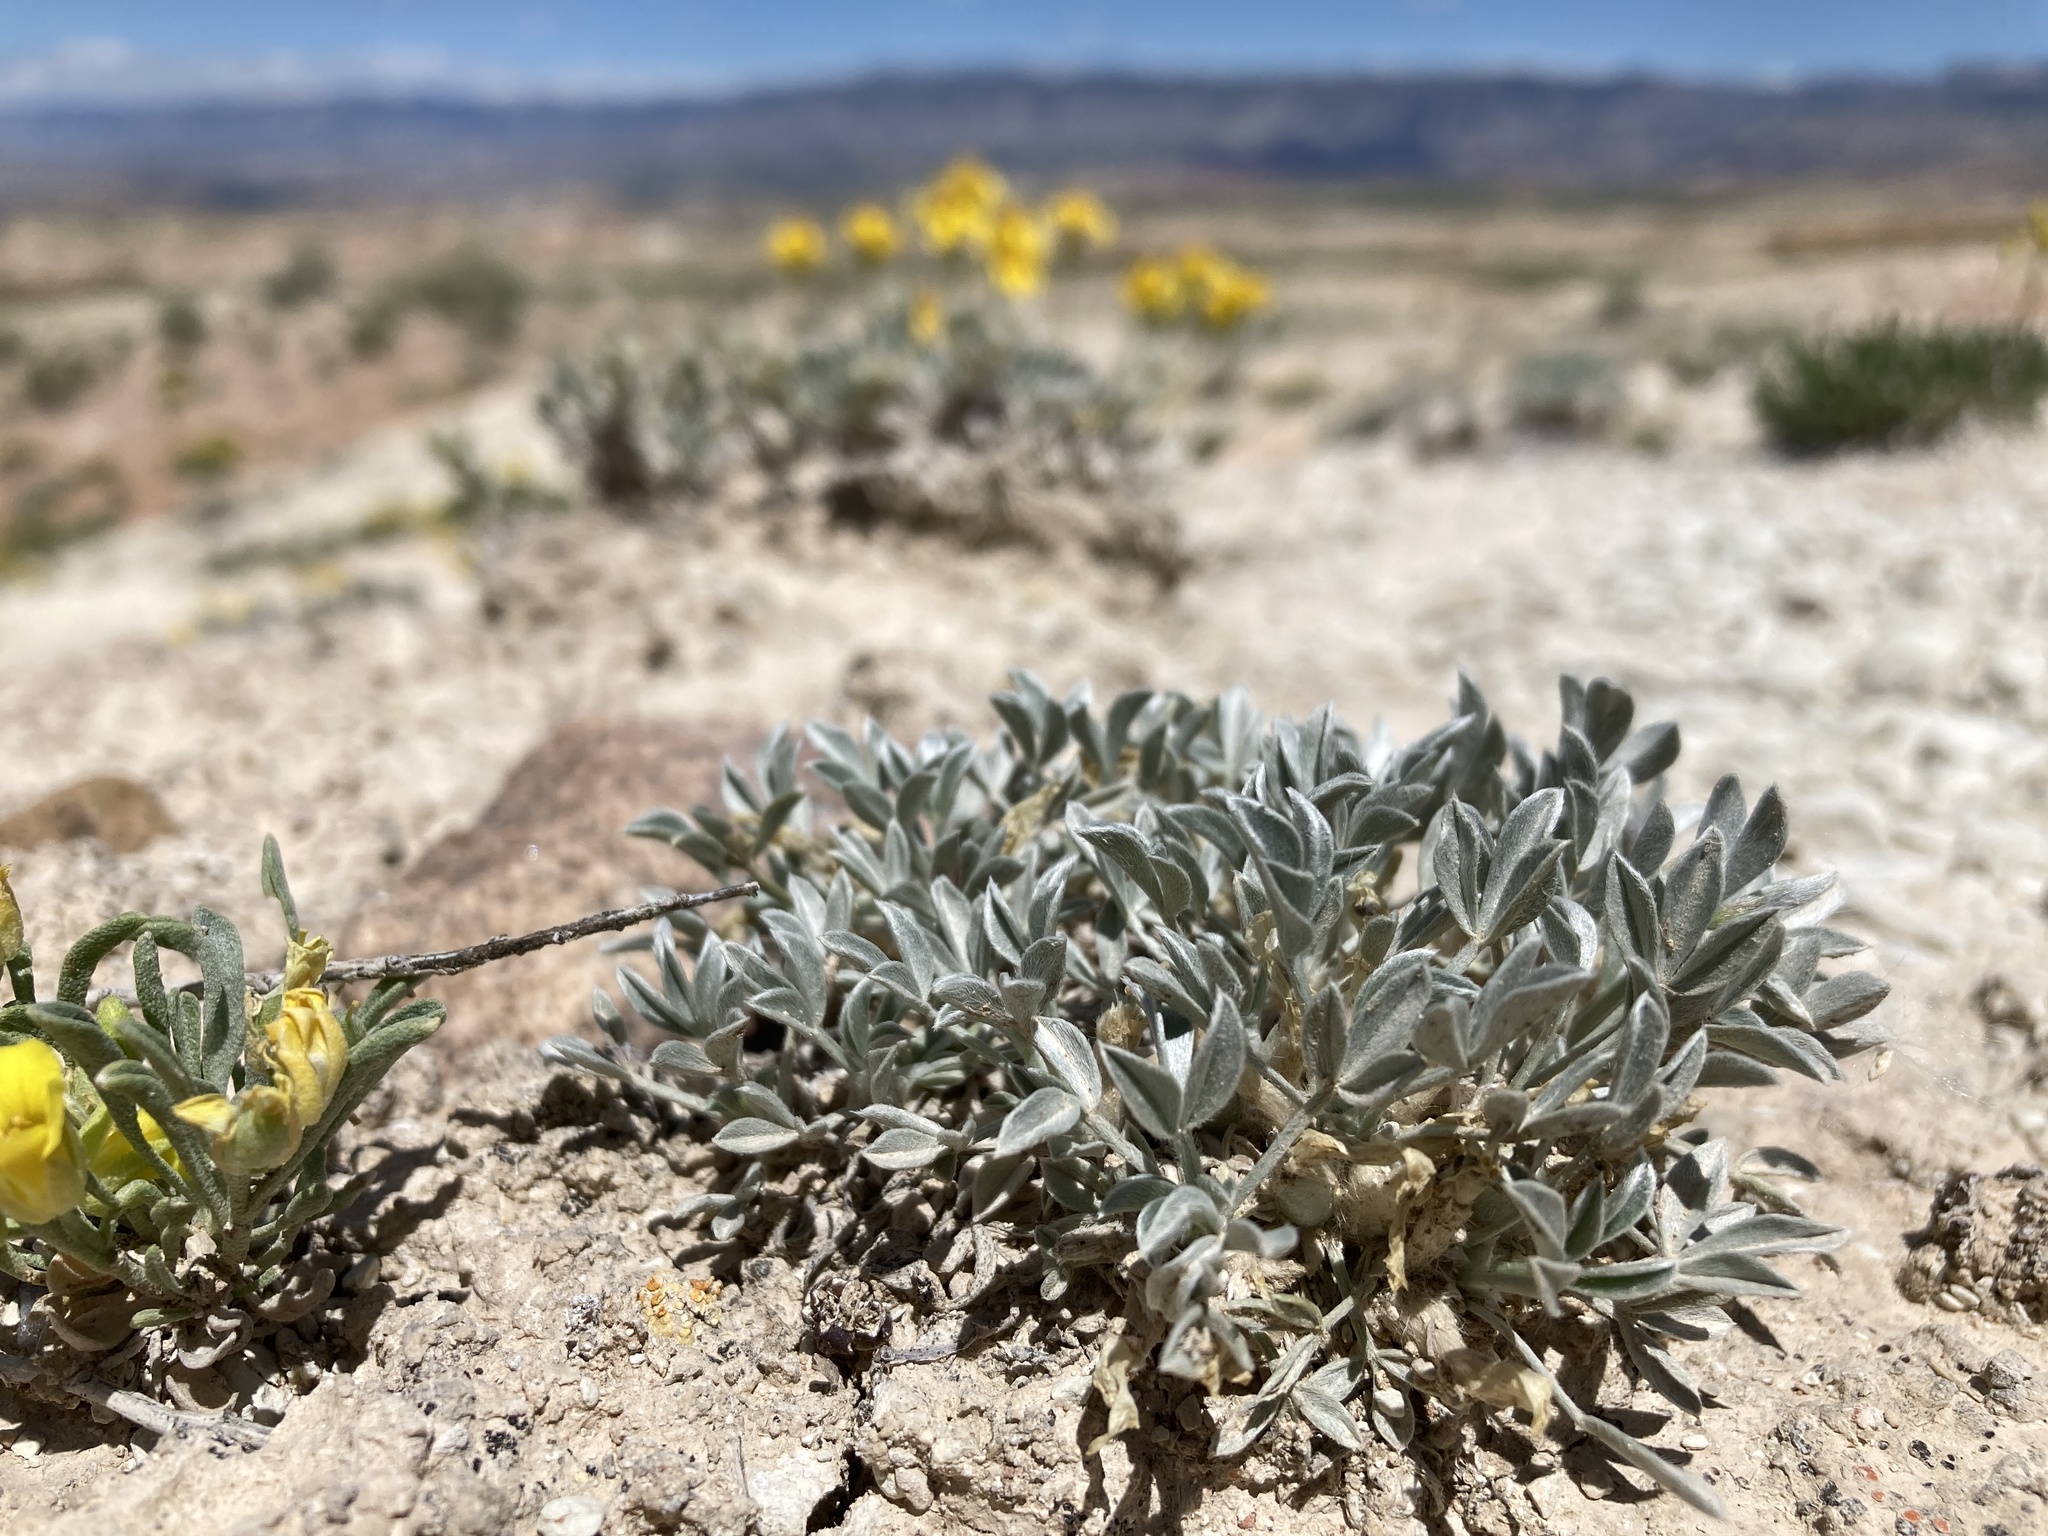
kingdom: Plantae
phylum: Tracheophyta
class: Magnoliopsida
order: Fabales
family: Fabaceae
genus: Astragalus
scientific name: Astragalus hyalinus
